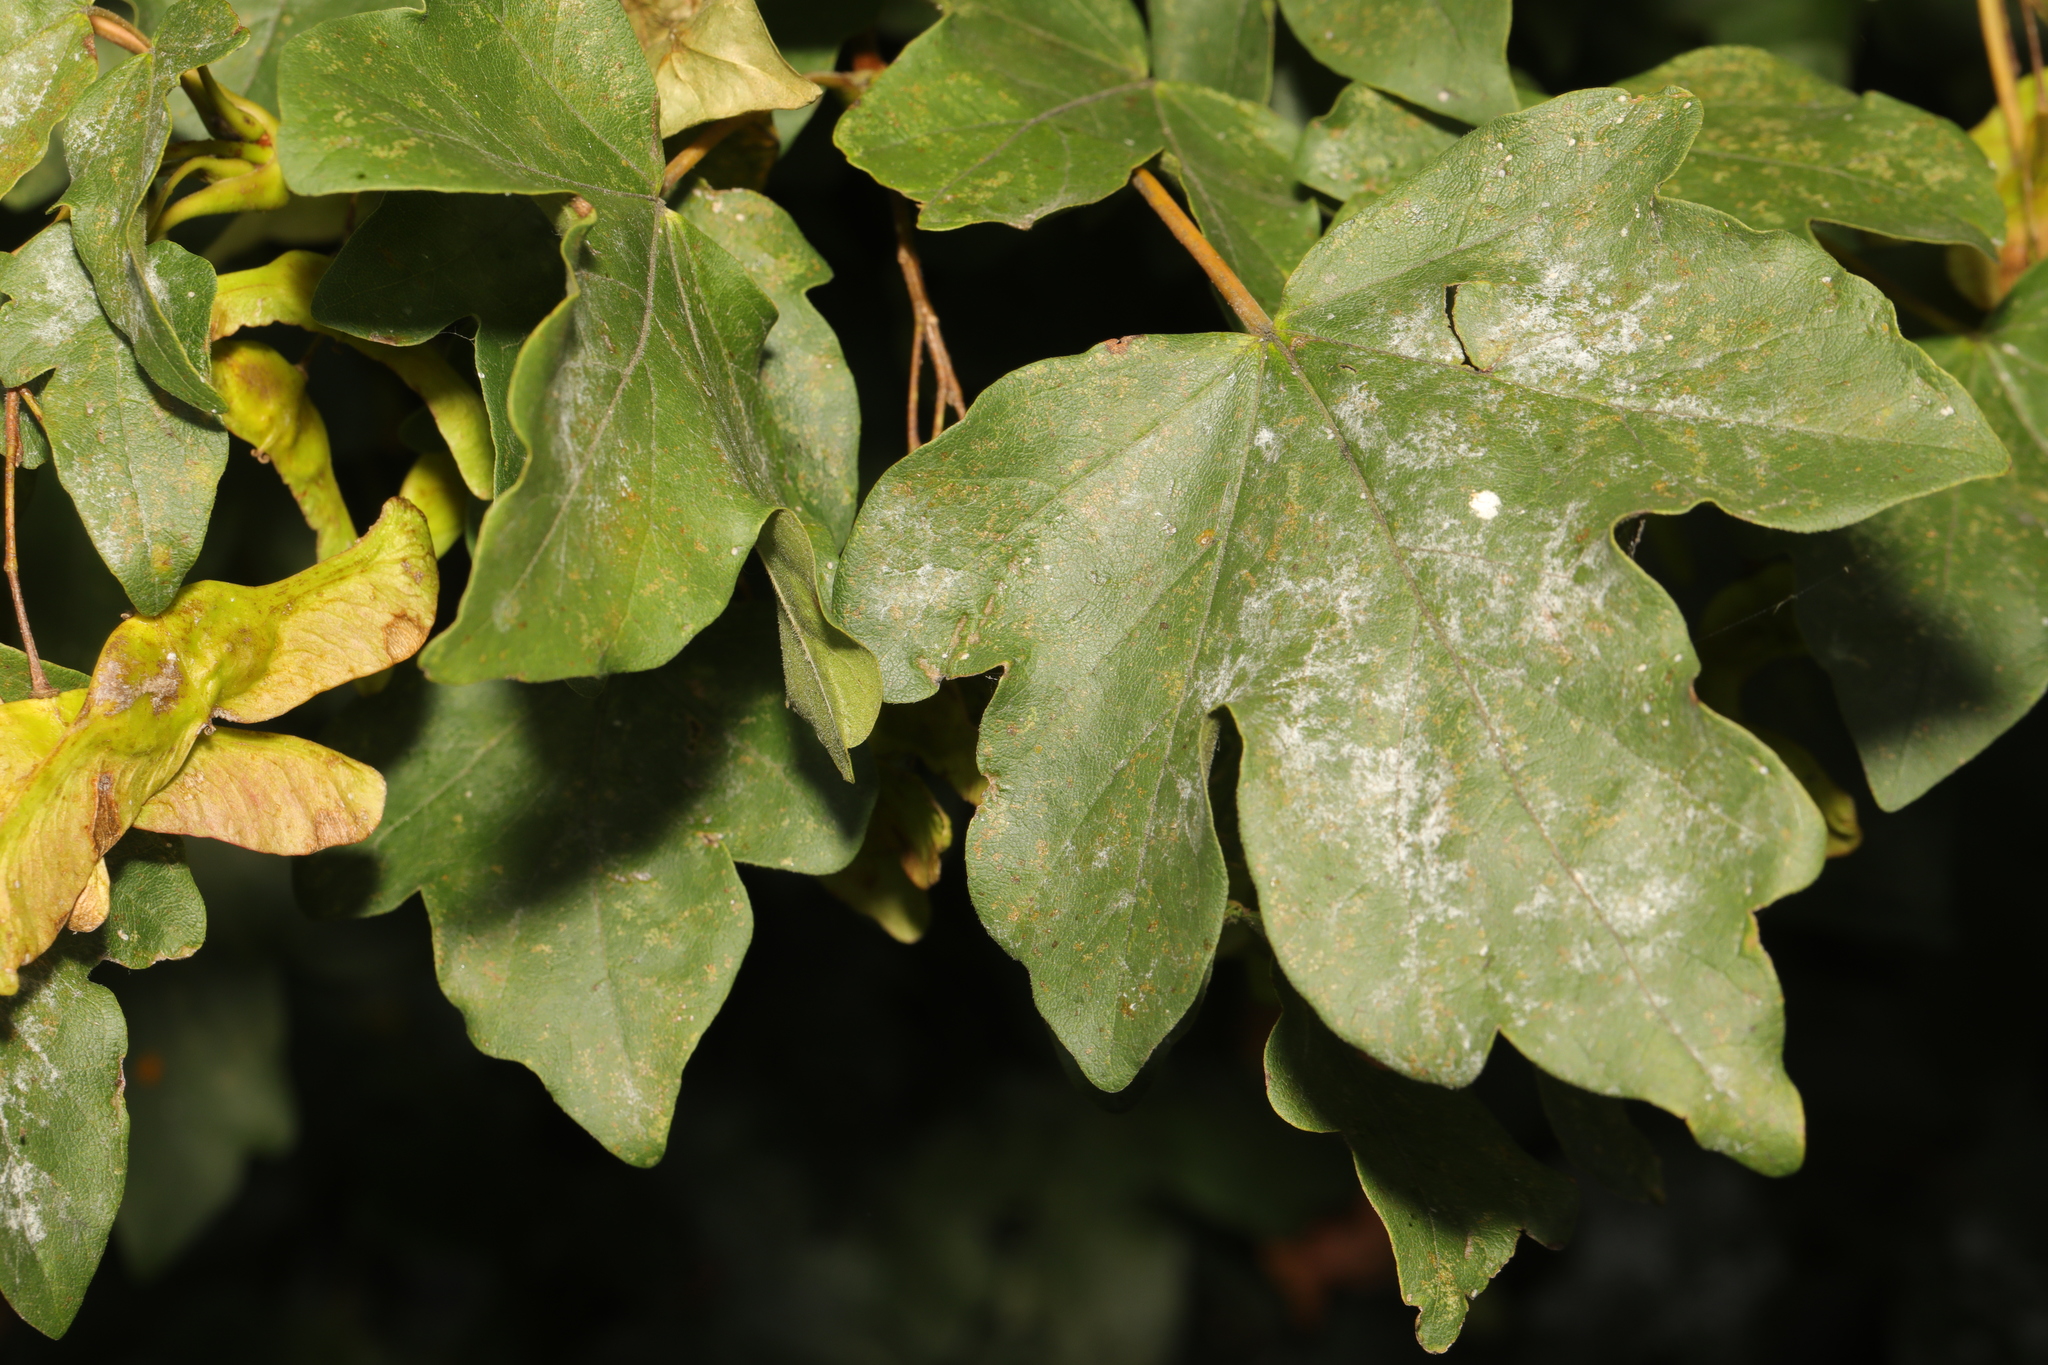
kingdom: Fungi
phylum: Ascomycota
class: Leotiomycetes
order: Helotiales
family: Erysiphaceae
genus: Sawadaea
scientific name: Sawadaea bicornis
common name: Maple mildew
